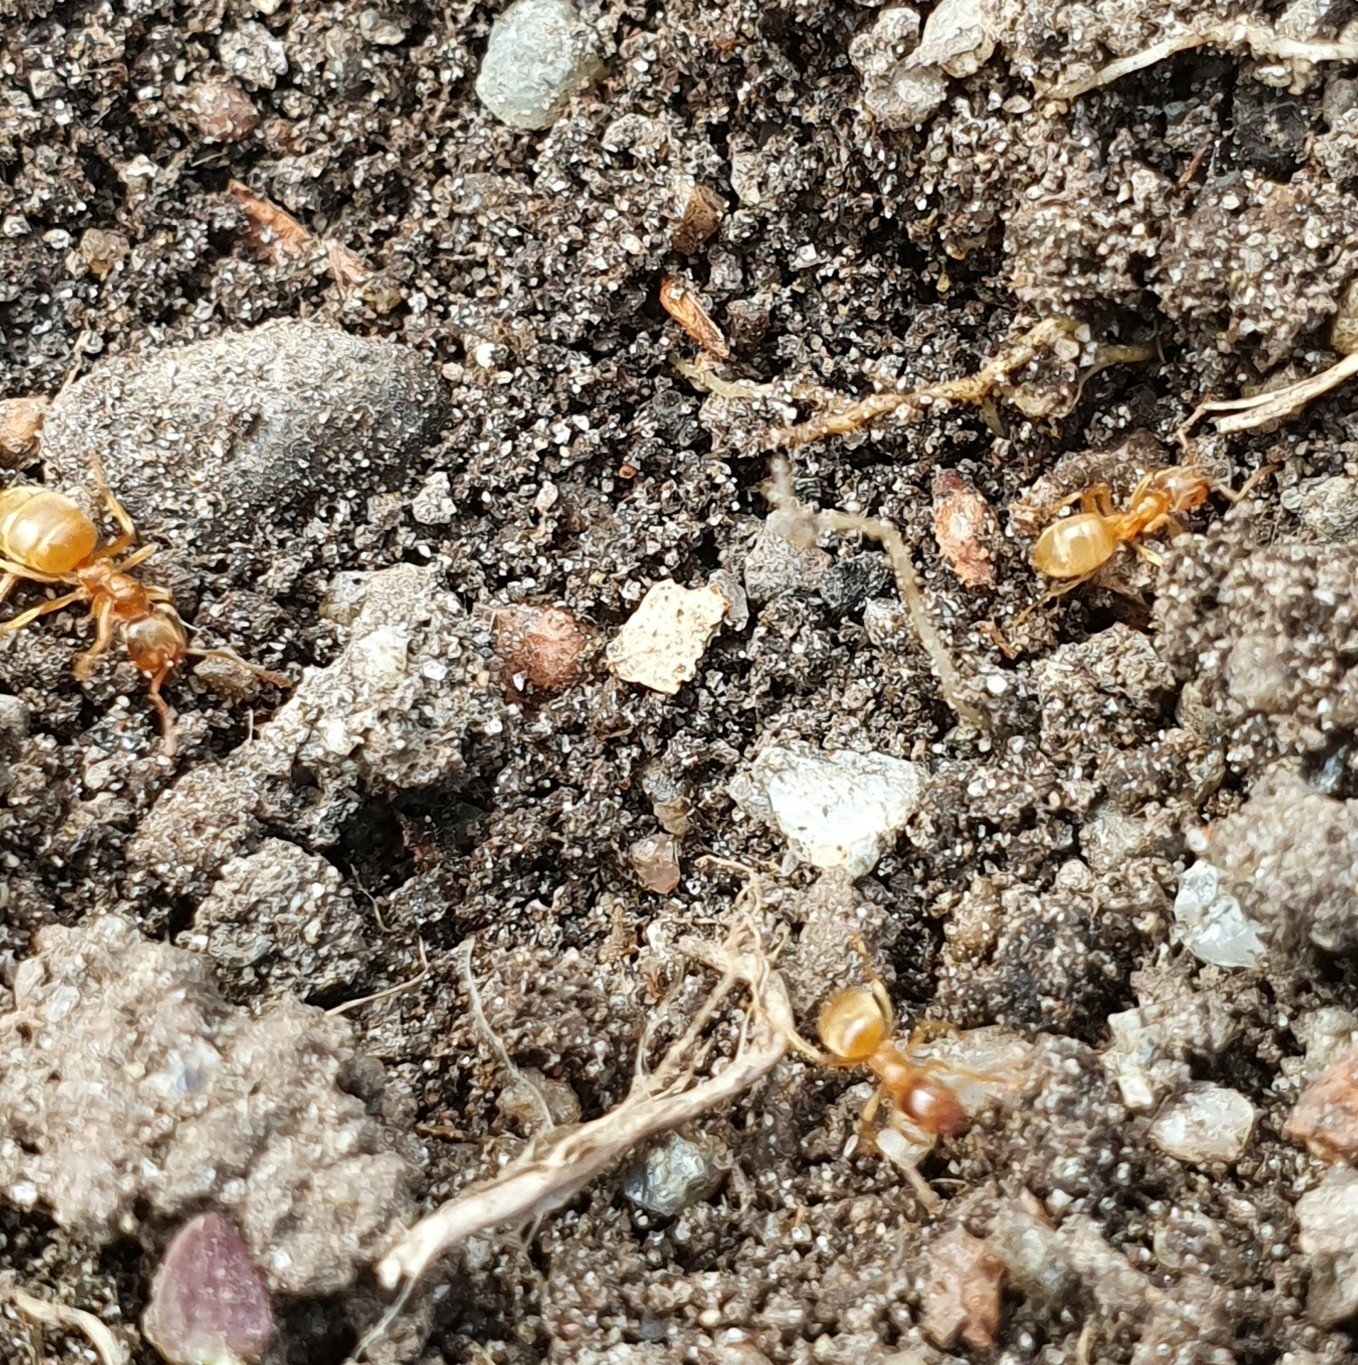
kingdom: Animalia
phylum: Arthropoda
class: Insecta
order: Hymenoptera
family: Formicidae
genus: Lasius
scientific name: Lasius flavus
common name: Blond field ant
